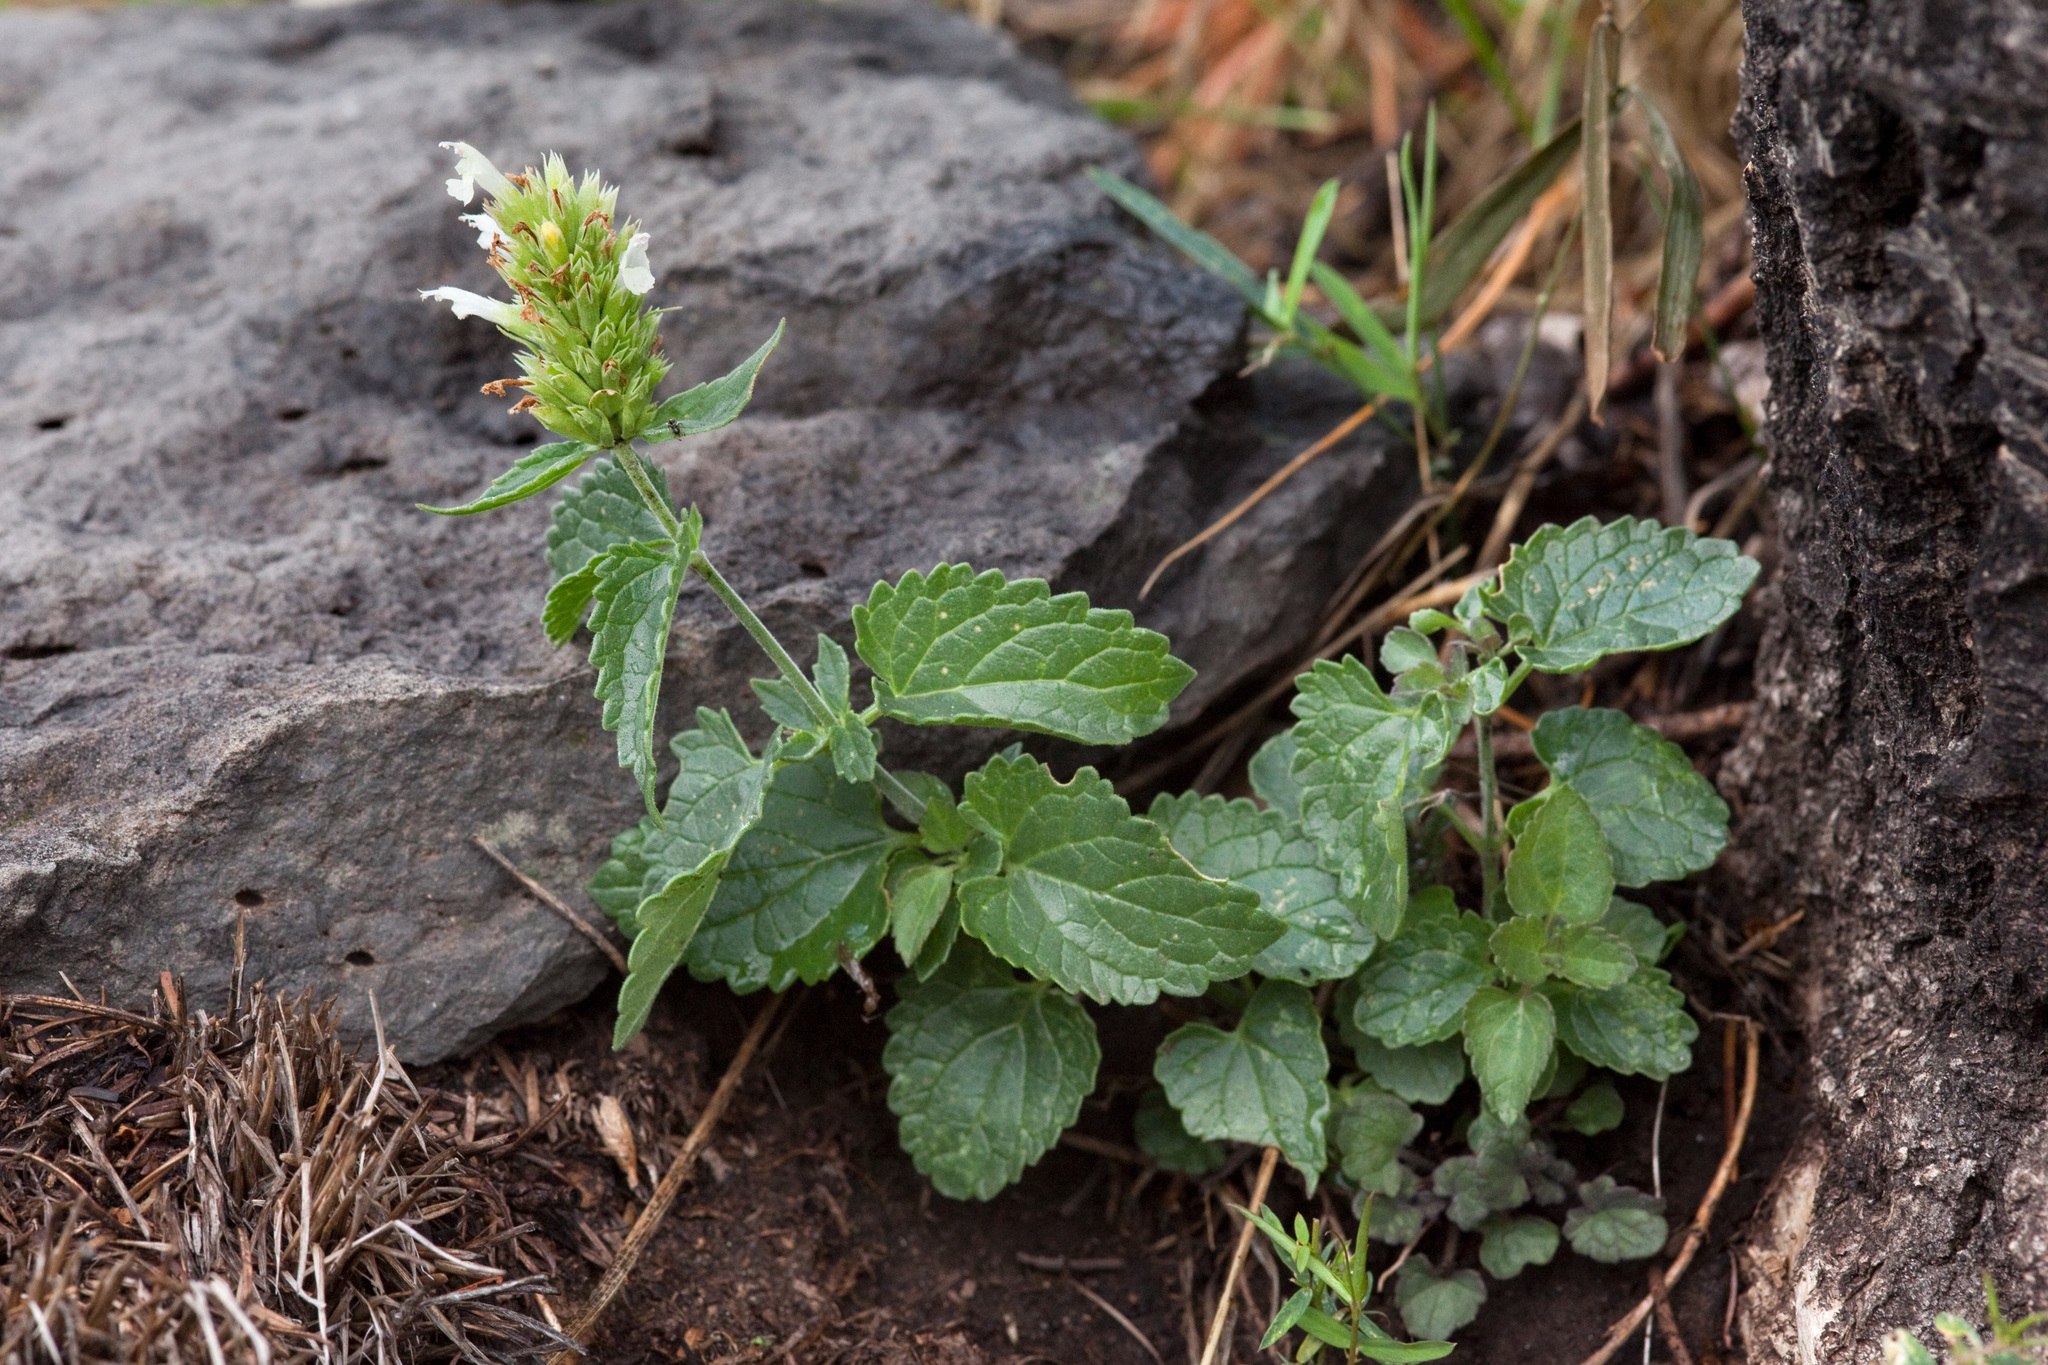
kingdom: Plantae
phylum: Tracheophyta
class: Magnoliopsida
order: Lamiales
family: Lamiaceae
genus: Agastache
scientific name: Agastache pallidiflora
